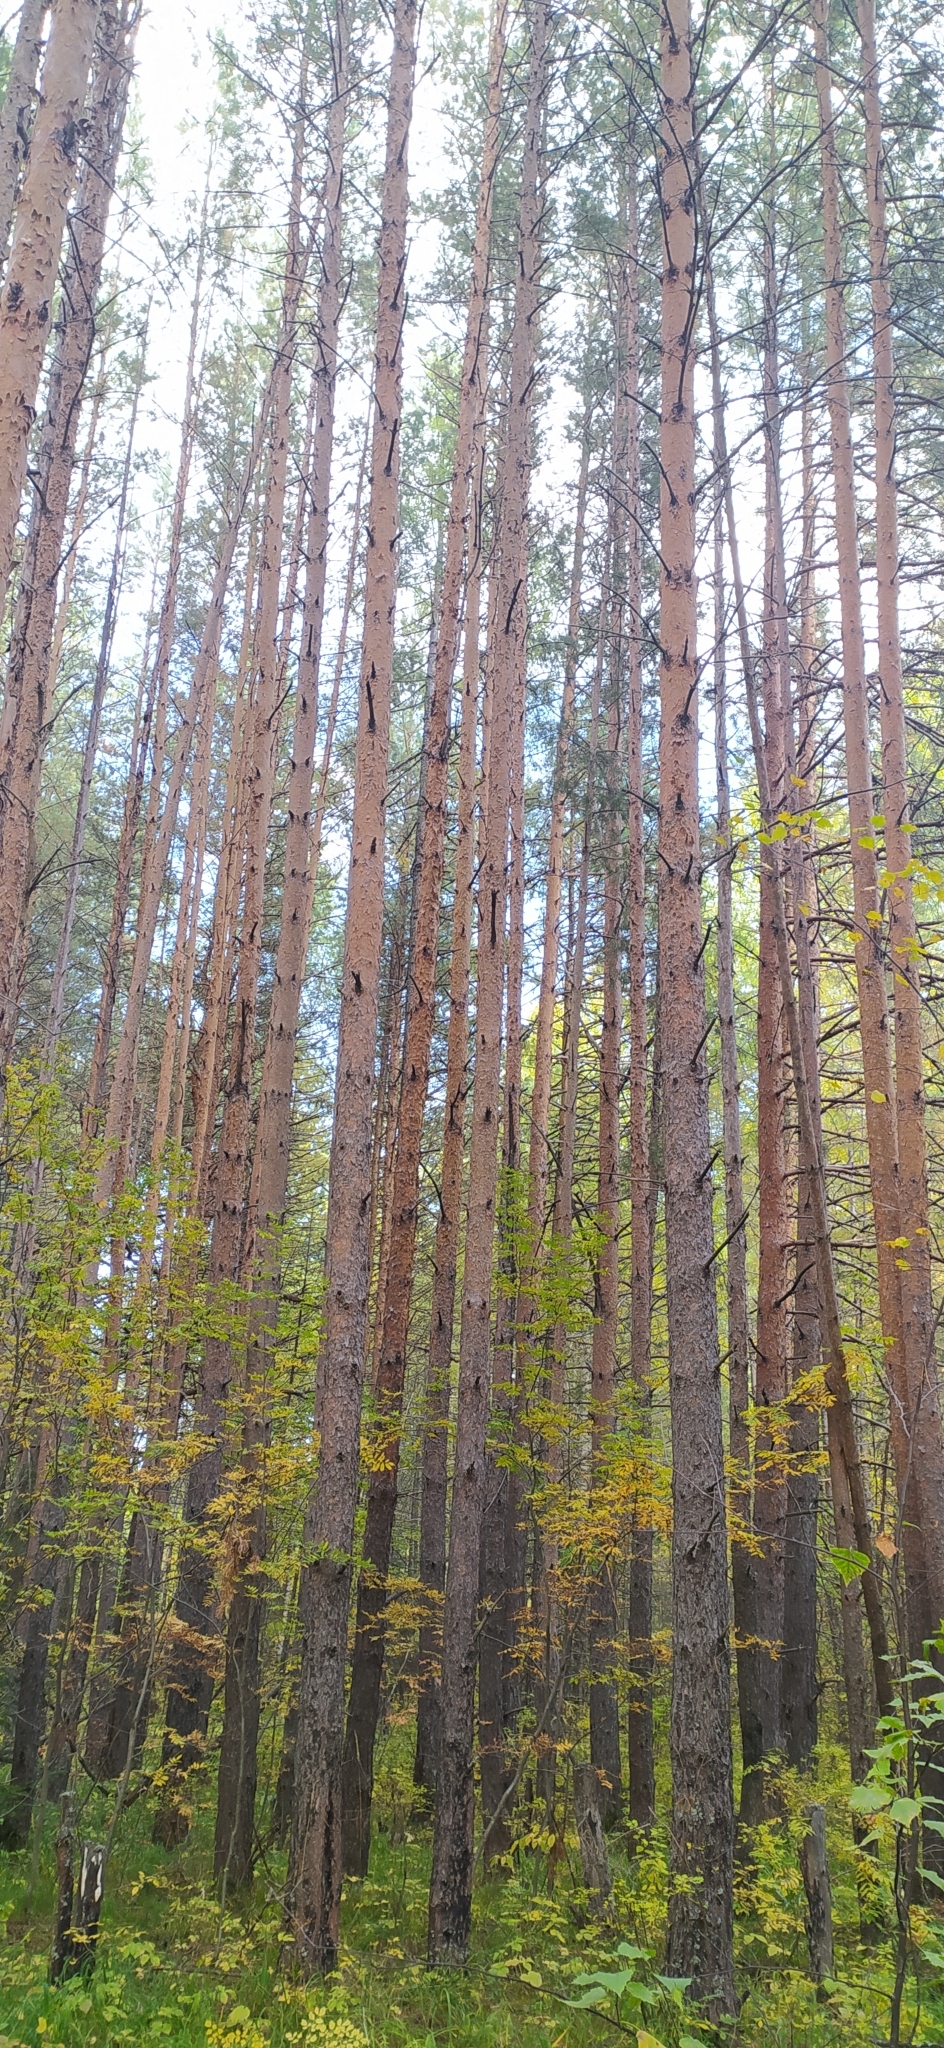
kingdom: Plantae
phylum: Tracheophyta
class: Pinopsida
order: Pinales
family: Pinaceae
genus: Pinus
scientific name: Pinus sylvestris
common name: Scots pine
